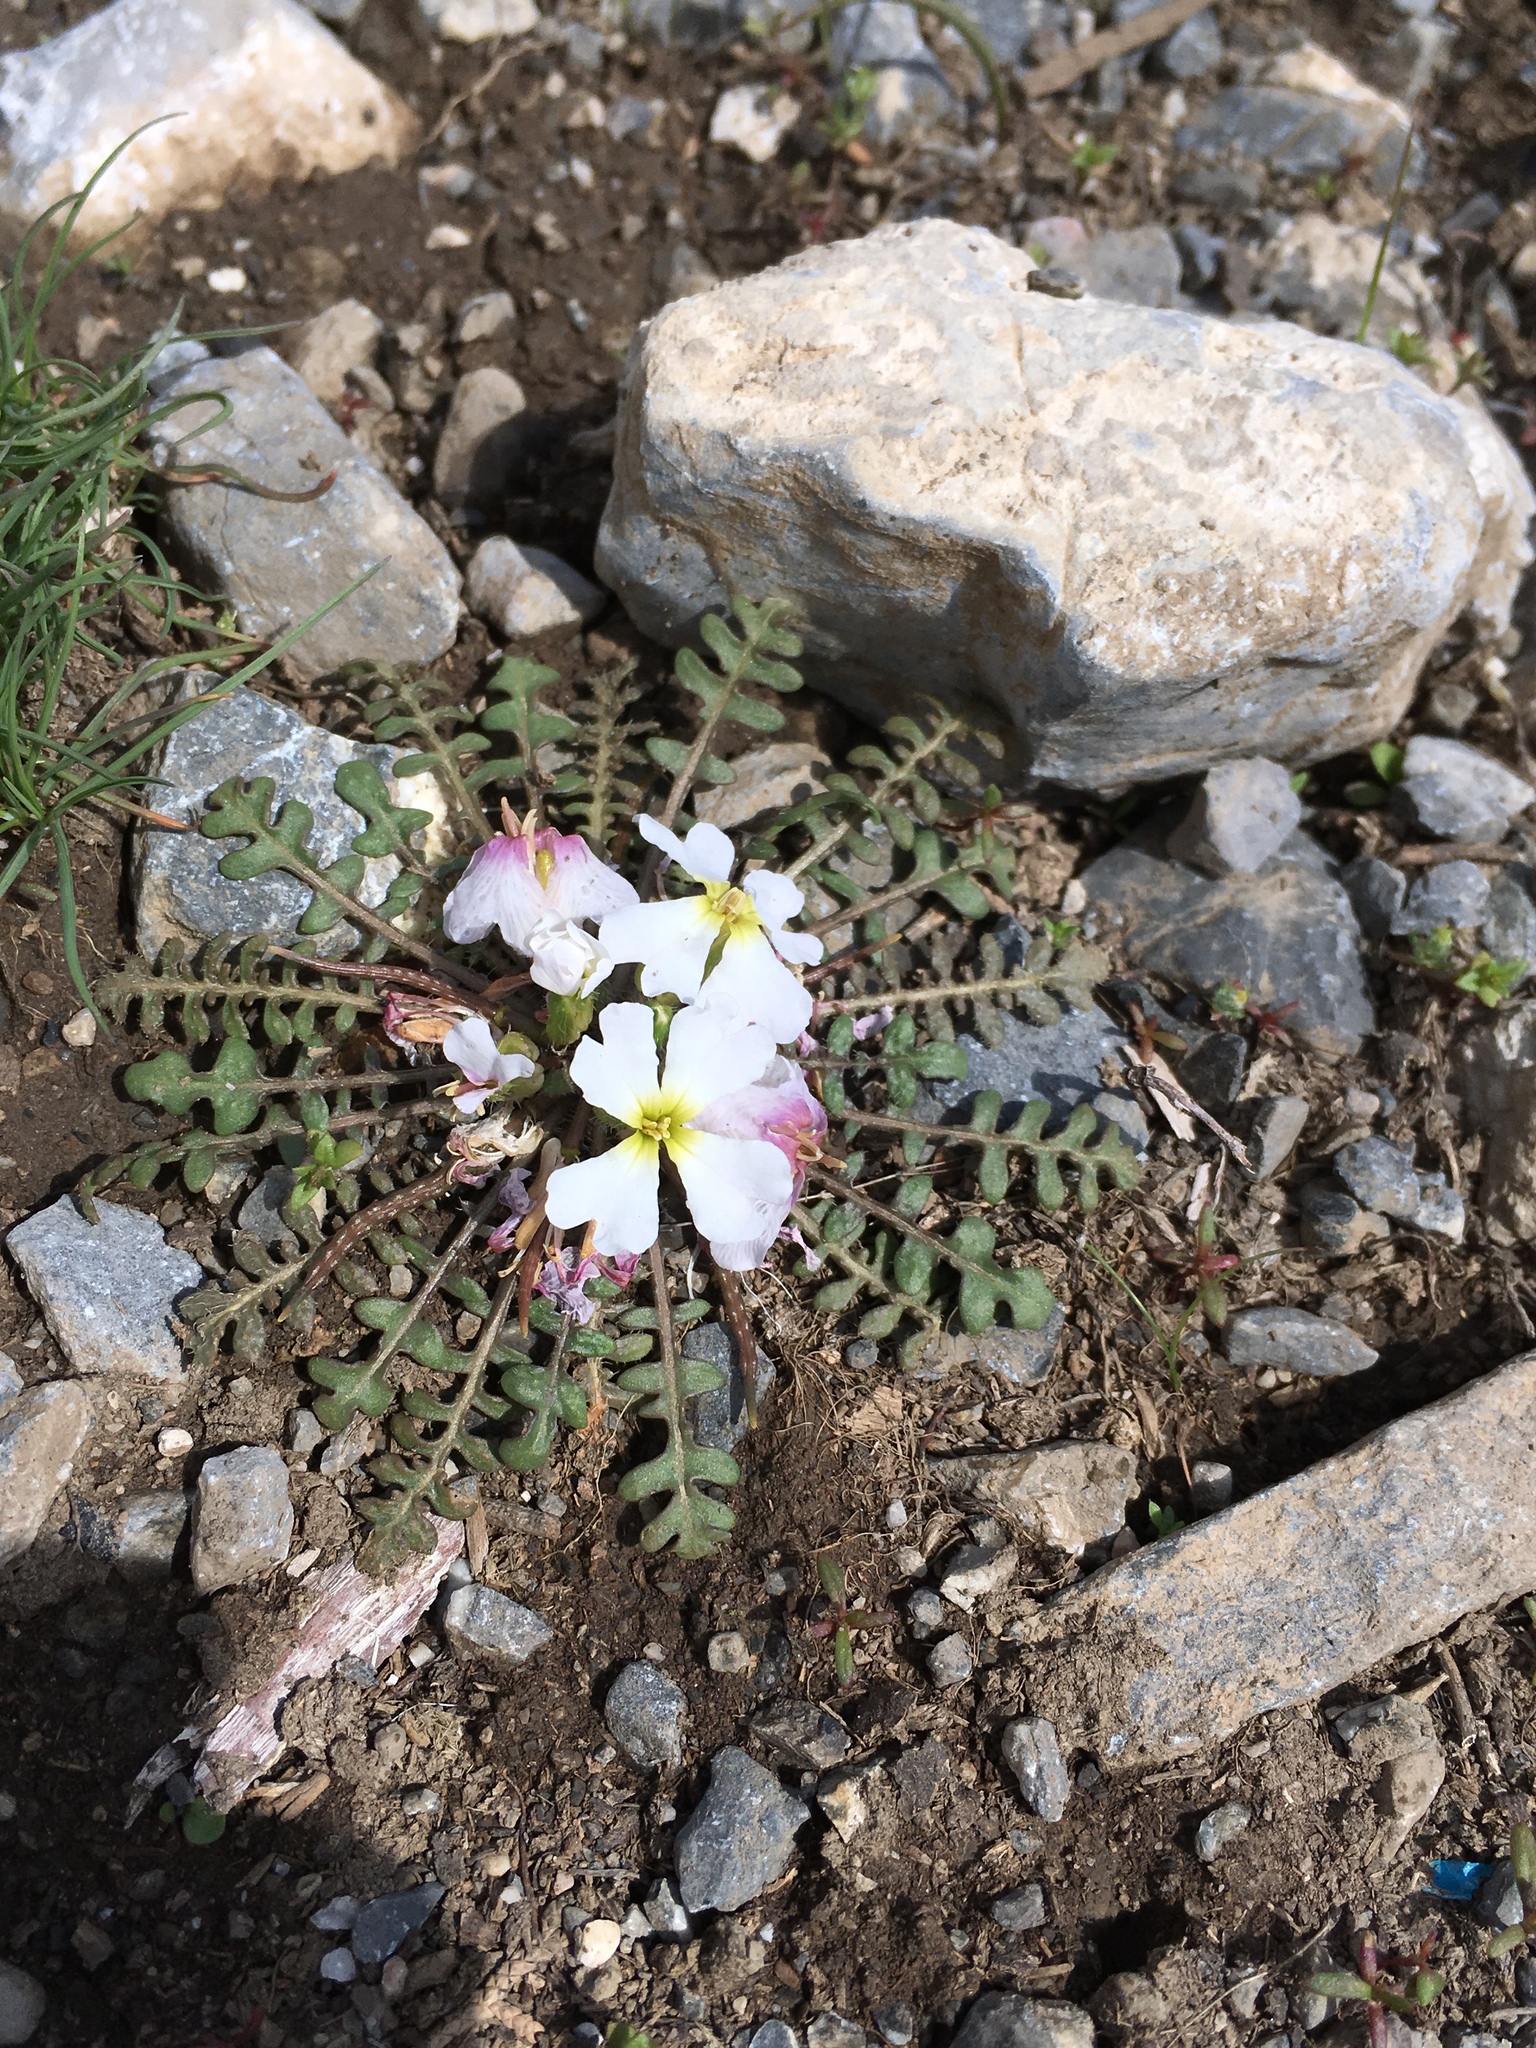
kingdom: Plantae
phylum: Tracheophyta
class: Magnoliopsida
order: Brassicales
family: Brassicaceae
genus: Chorispora
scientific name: Chorispora bungeana
